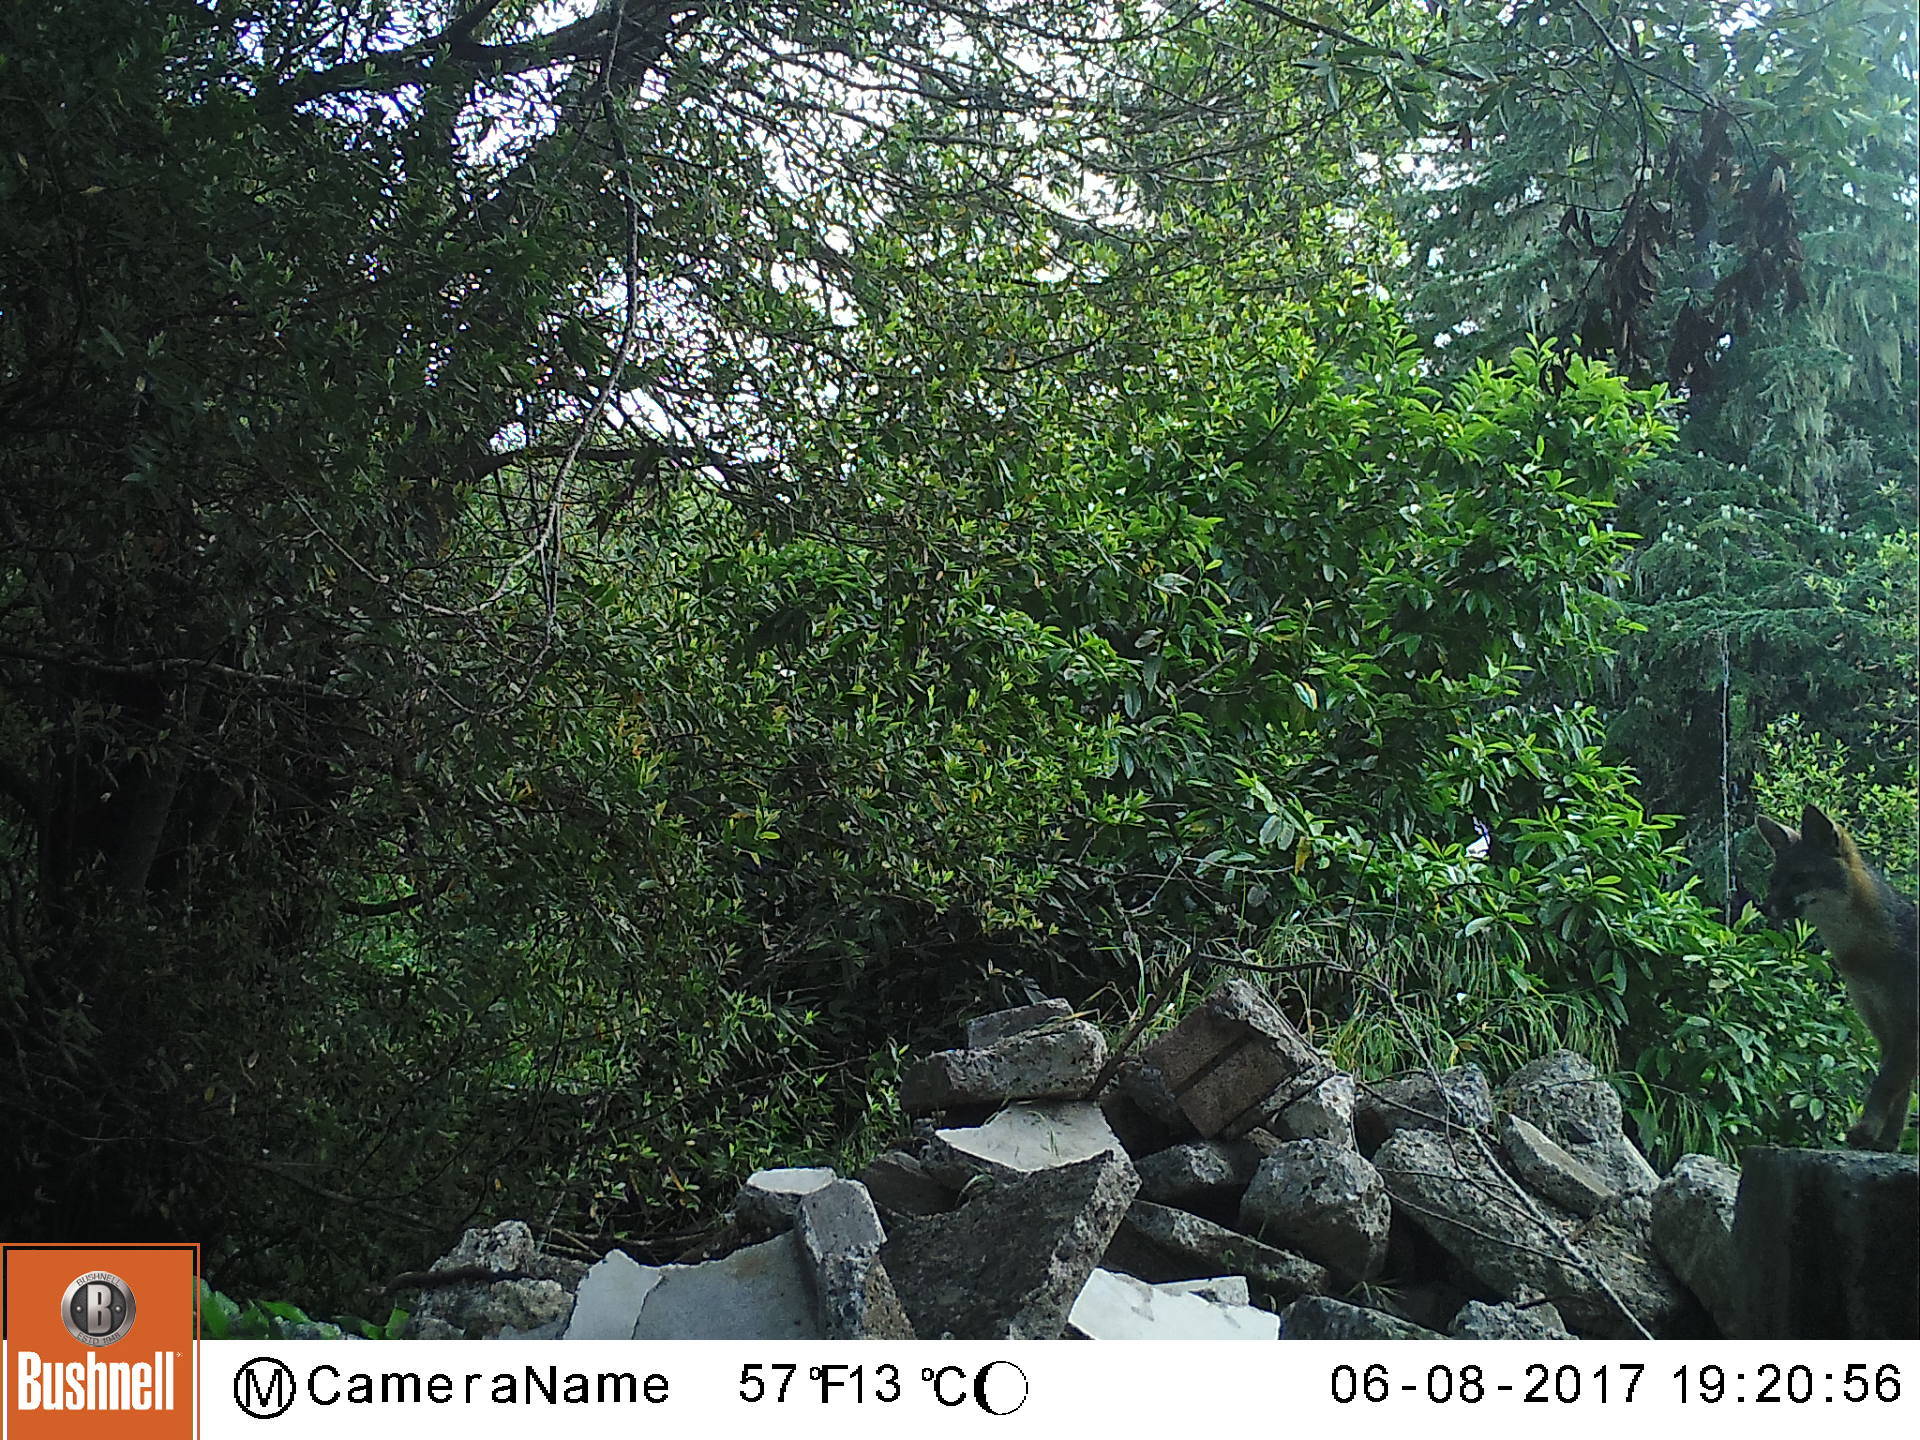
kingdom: Animalia
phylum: Chordata
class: Mammalia
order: Carnivora
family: Canidae
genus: Urocyon
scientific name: Urocyon cinereoargenteus
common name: Gray fox
